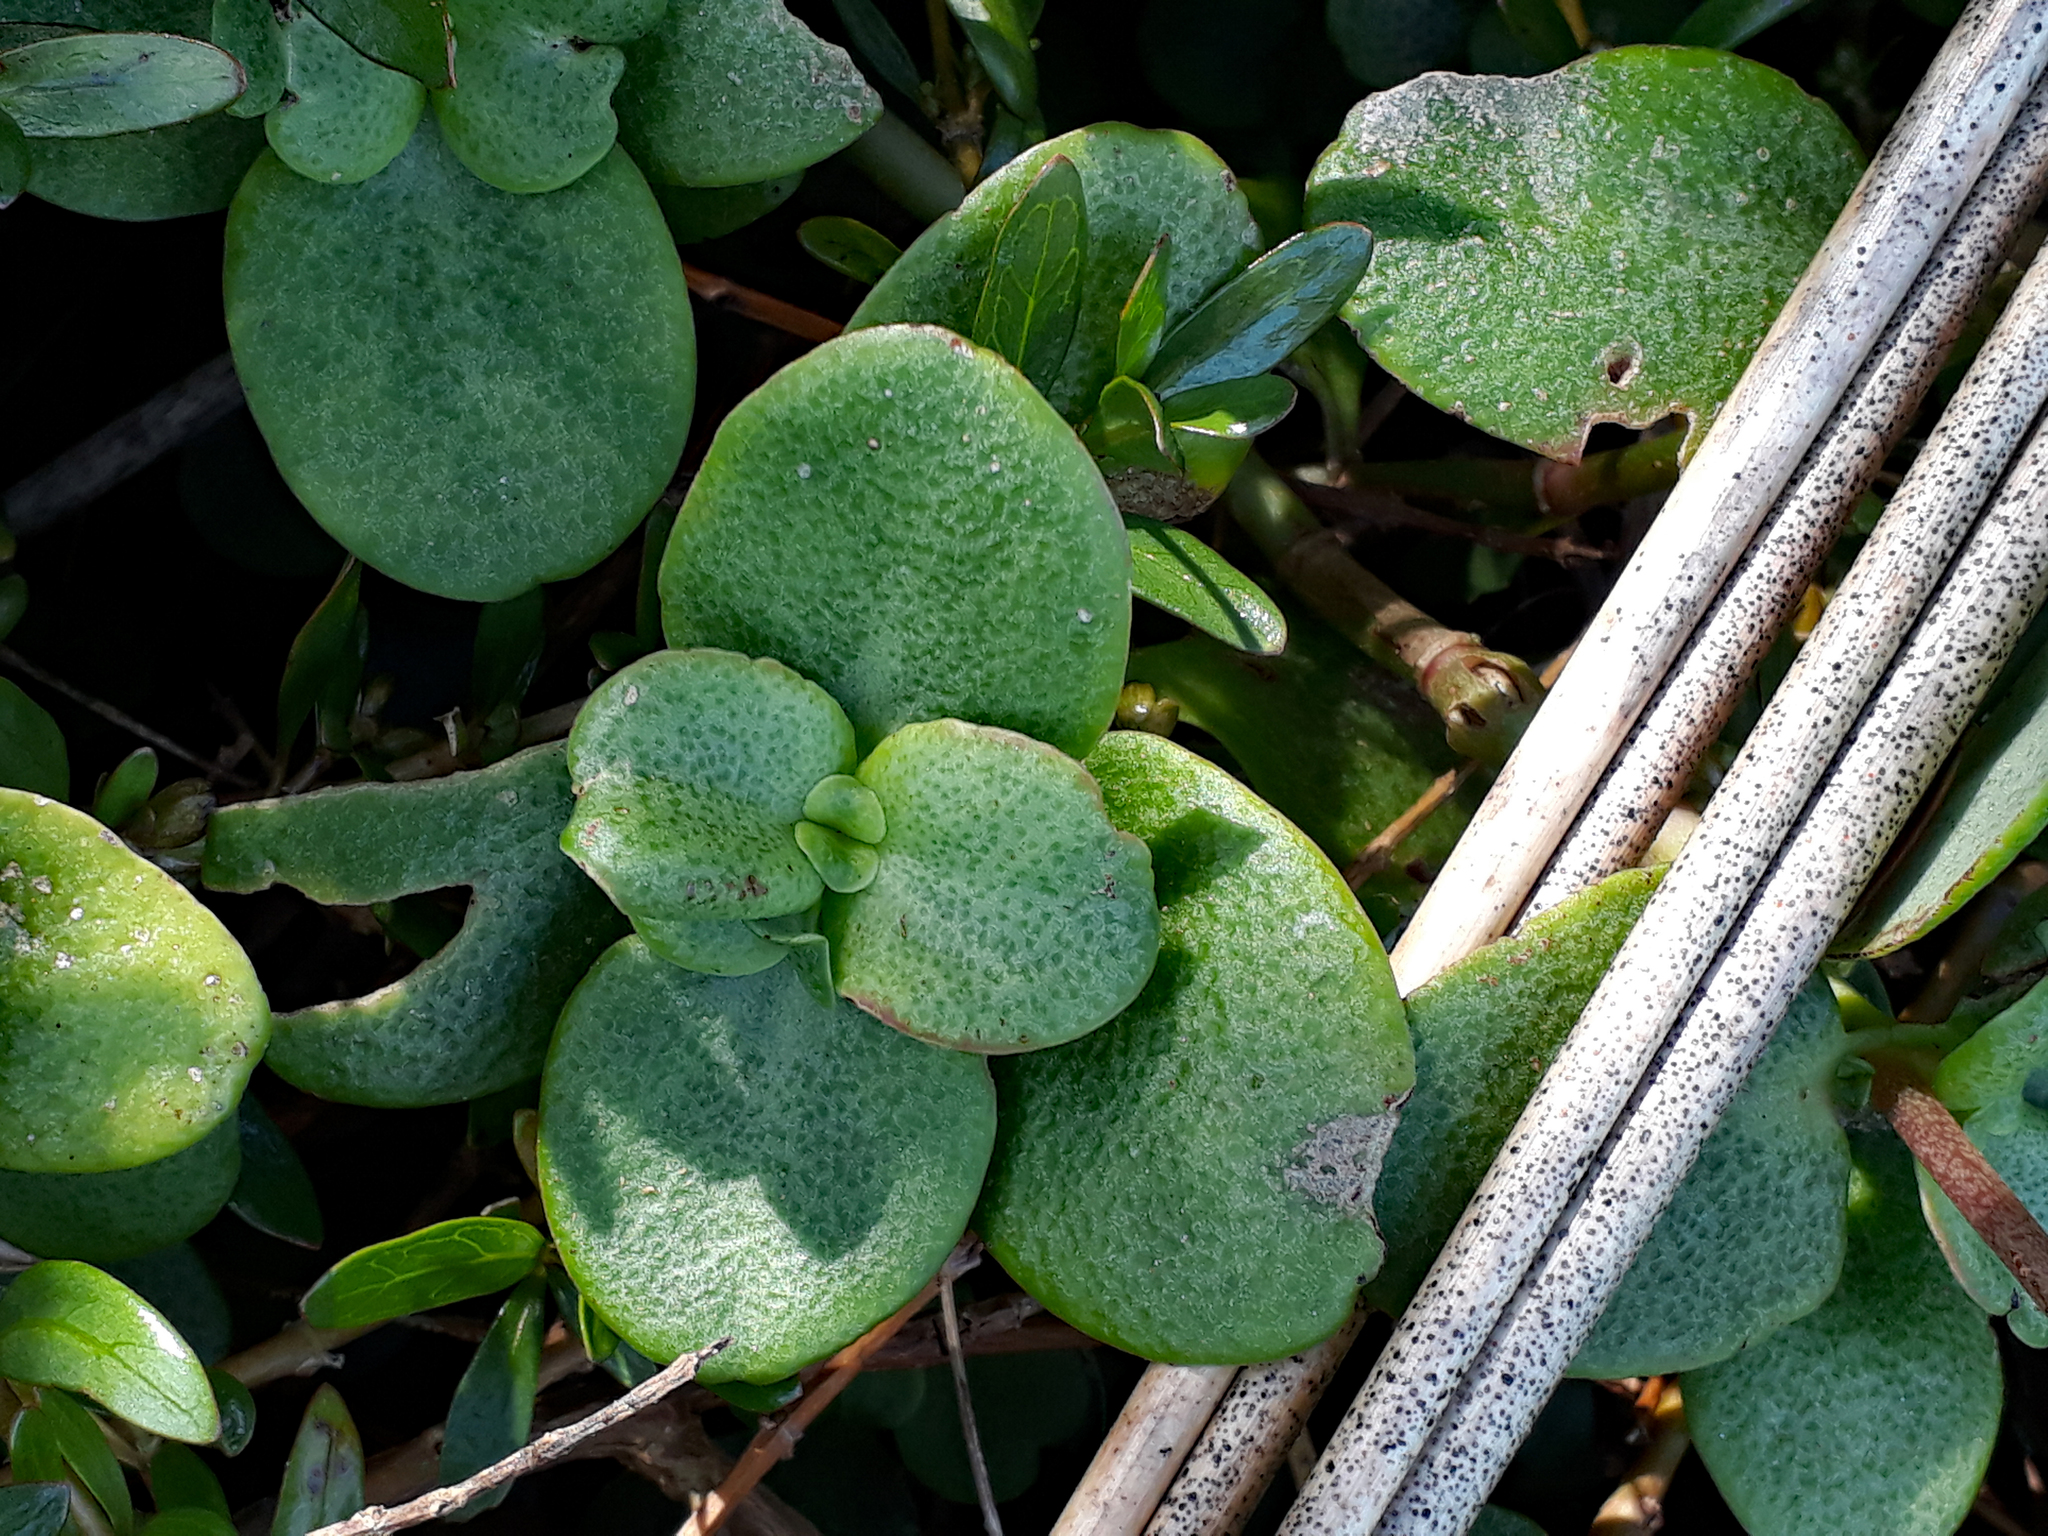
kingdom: Plantae
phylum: Tracheophyta
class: Magnoliopsida
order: Saxifragales
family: Crassulaceae
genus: Crassula
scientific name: Crassula multicava
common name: Cape province pygmyweed
